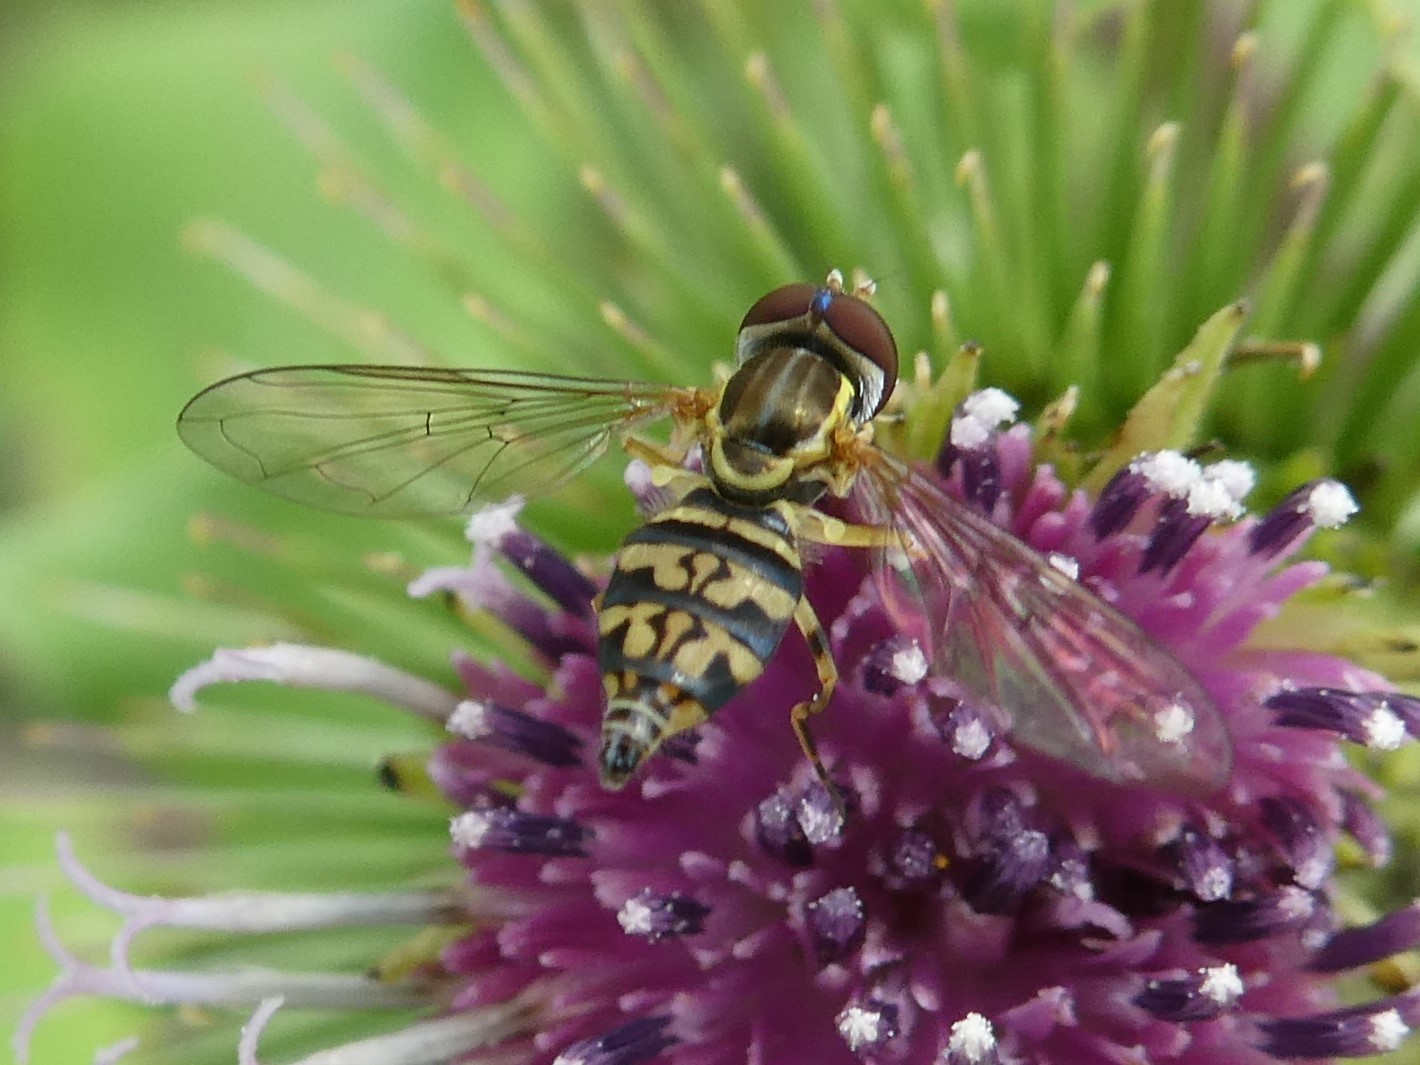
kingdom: Animalia
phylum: Arthropoda
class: Insecta
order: Diptera
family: Syrphidae
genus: Toxomerus
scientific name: Toxomerus geminatus
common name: Eastern calligrapher
